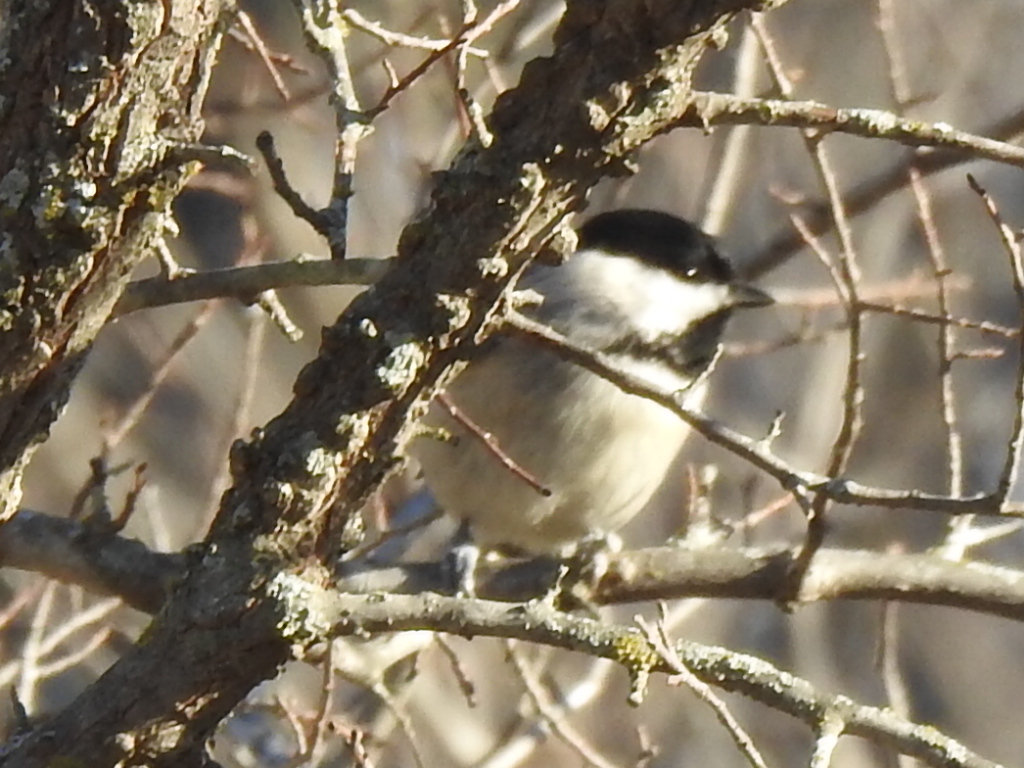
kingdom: Animalia
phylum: Chordata
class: Aves
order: Passeriformes
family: Paridae
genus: Poecile
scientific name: Poecile carolinensis
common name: Carolina chickadee
